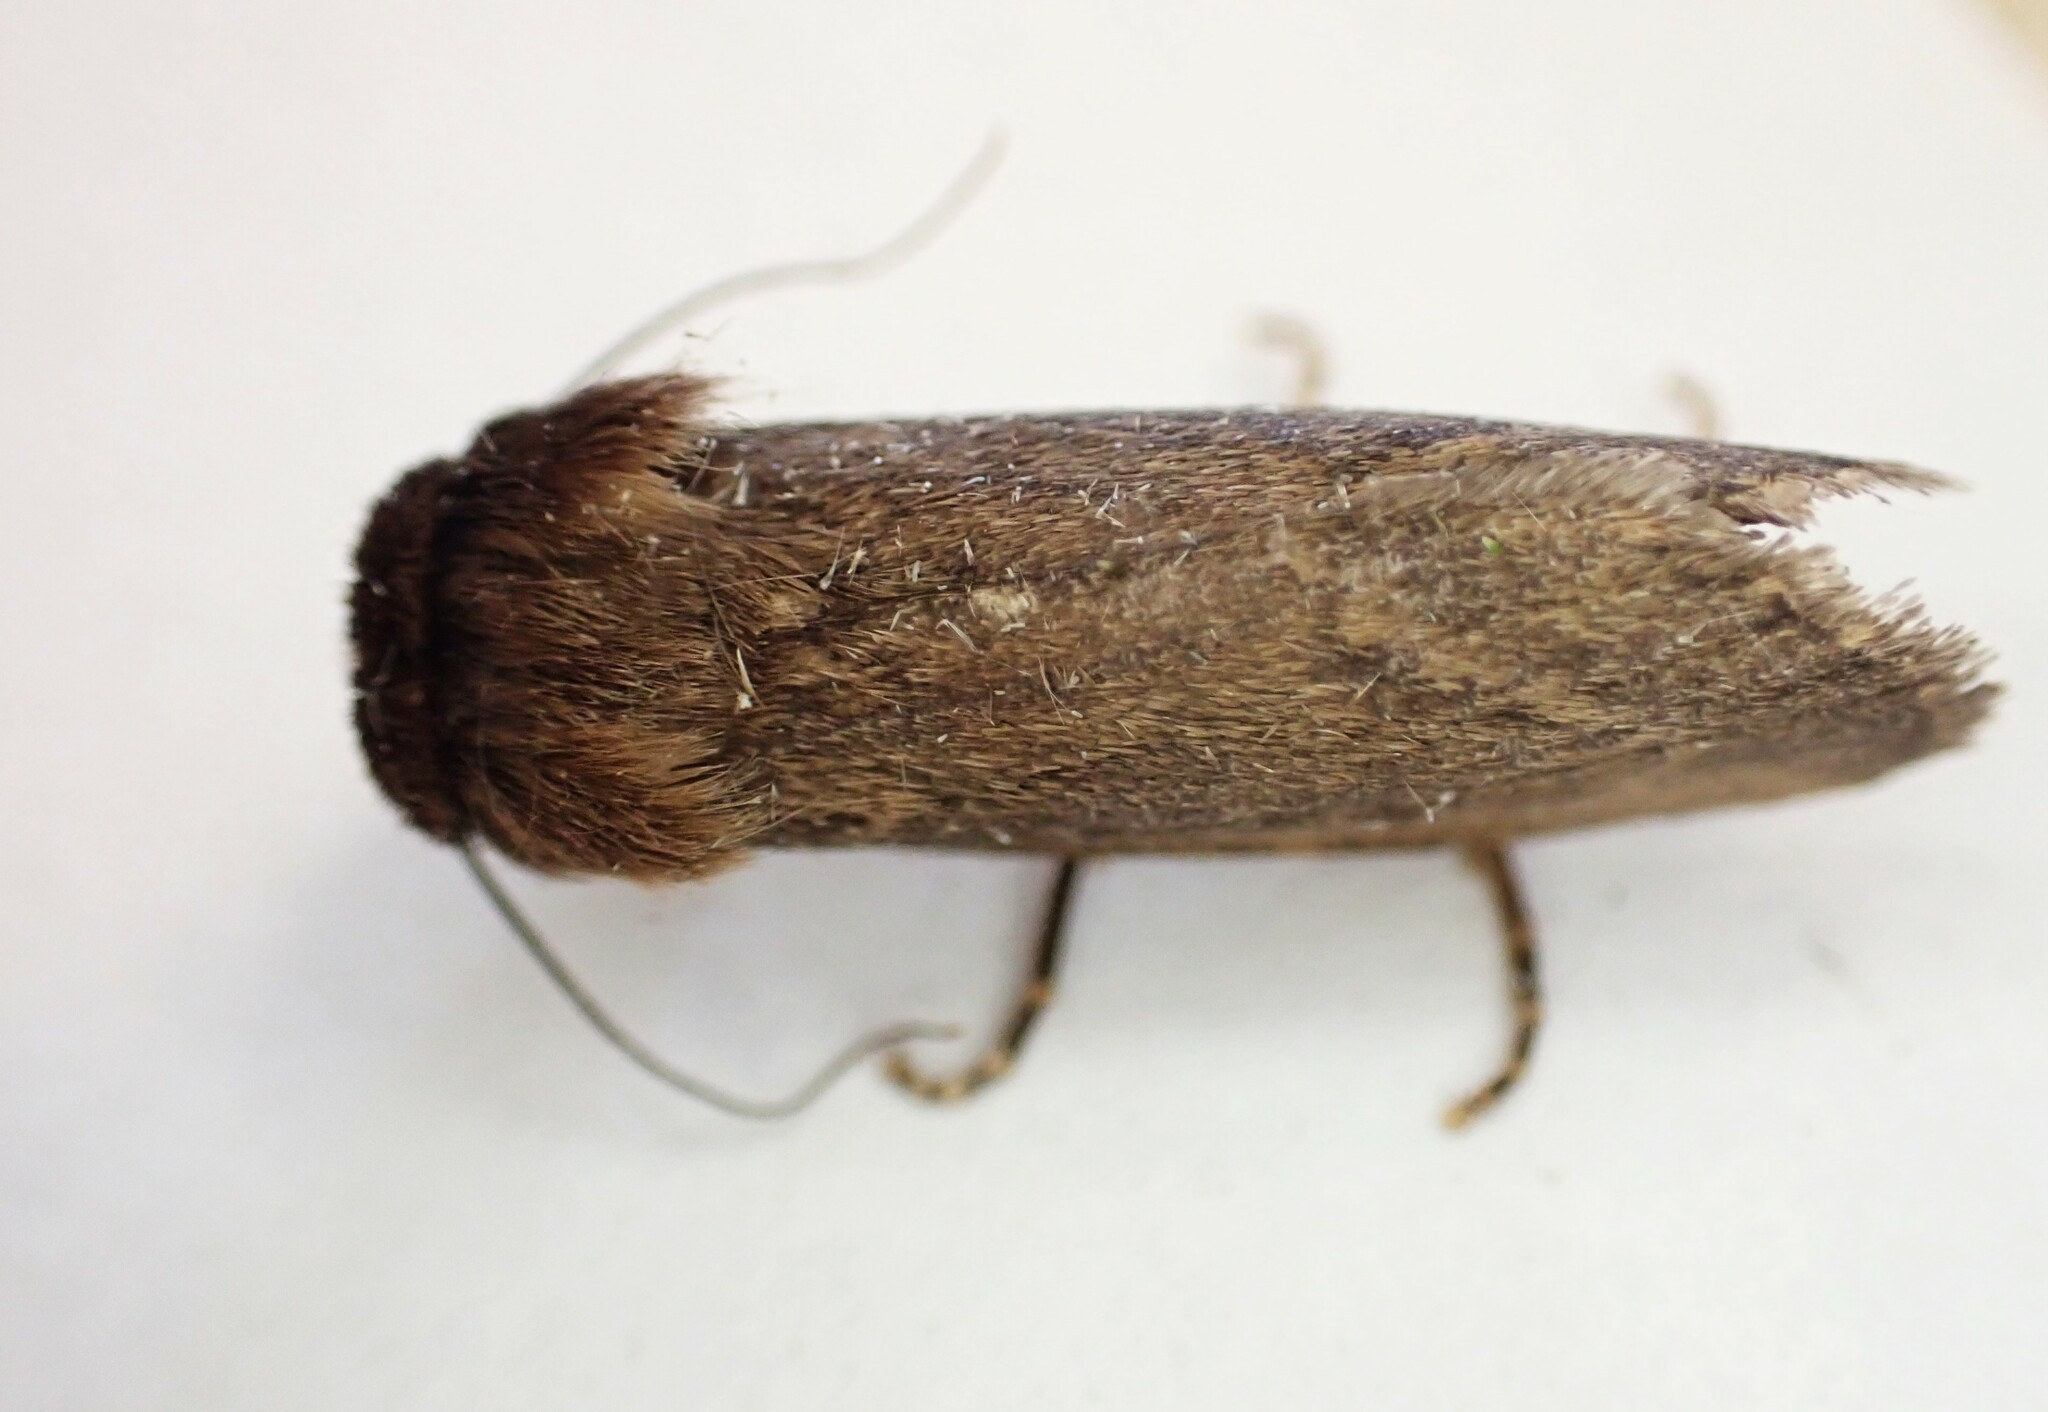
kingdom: Animalia
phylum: Arthropoda
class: Insecta
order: Lepidoptera
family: Noctuidae
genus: Bityla
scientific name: Bityla defigurata
